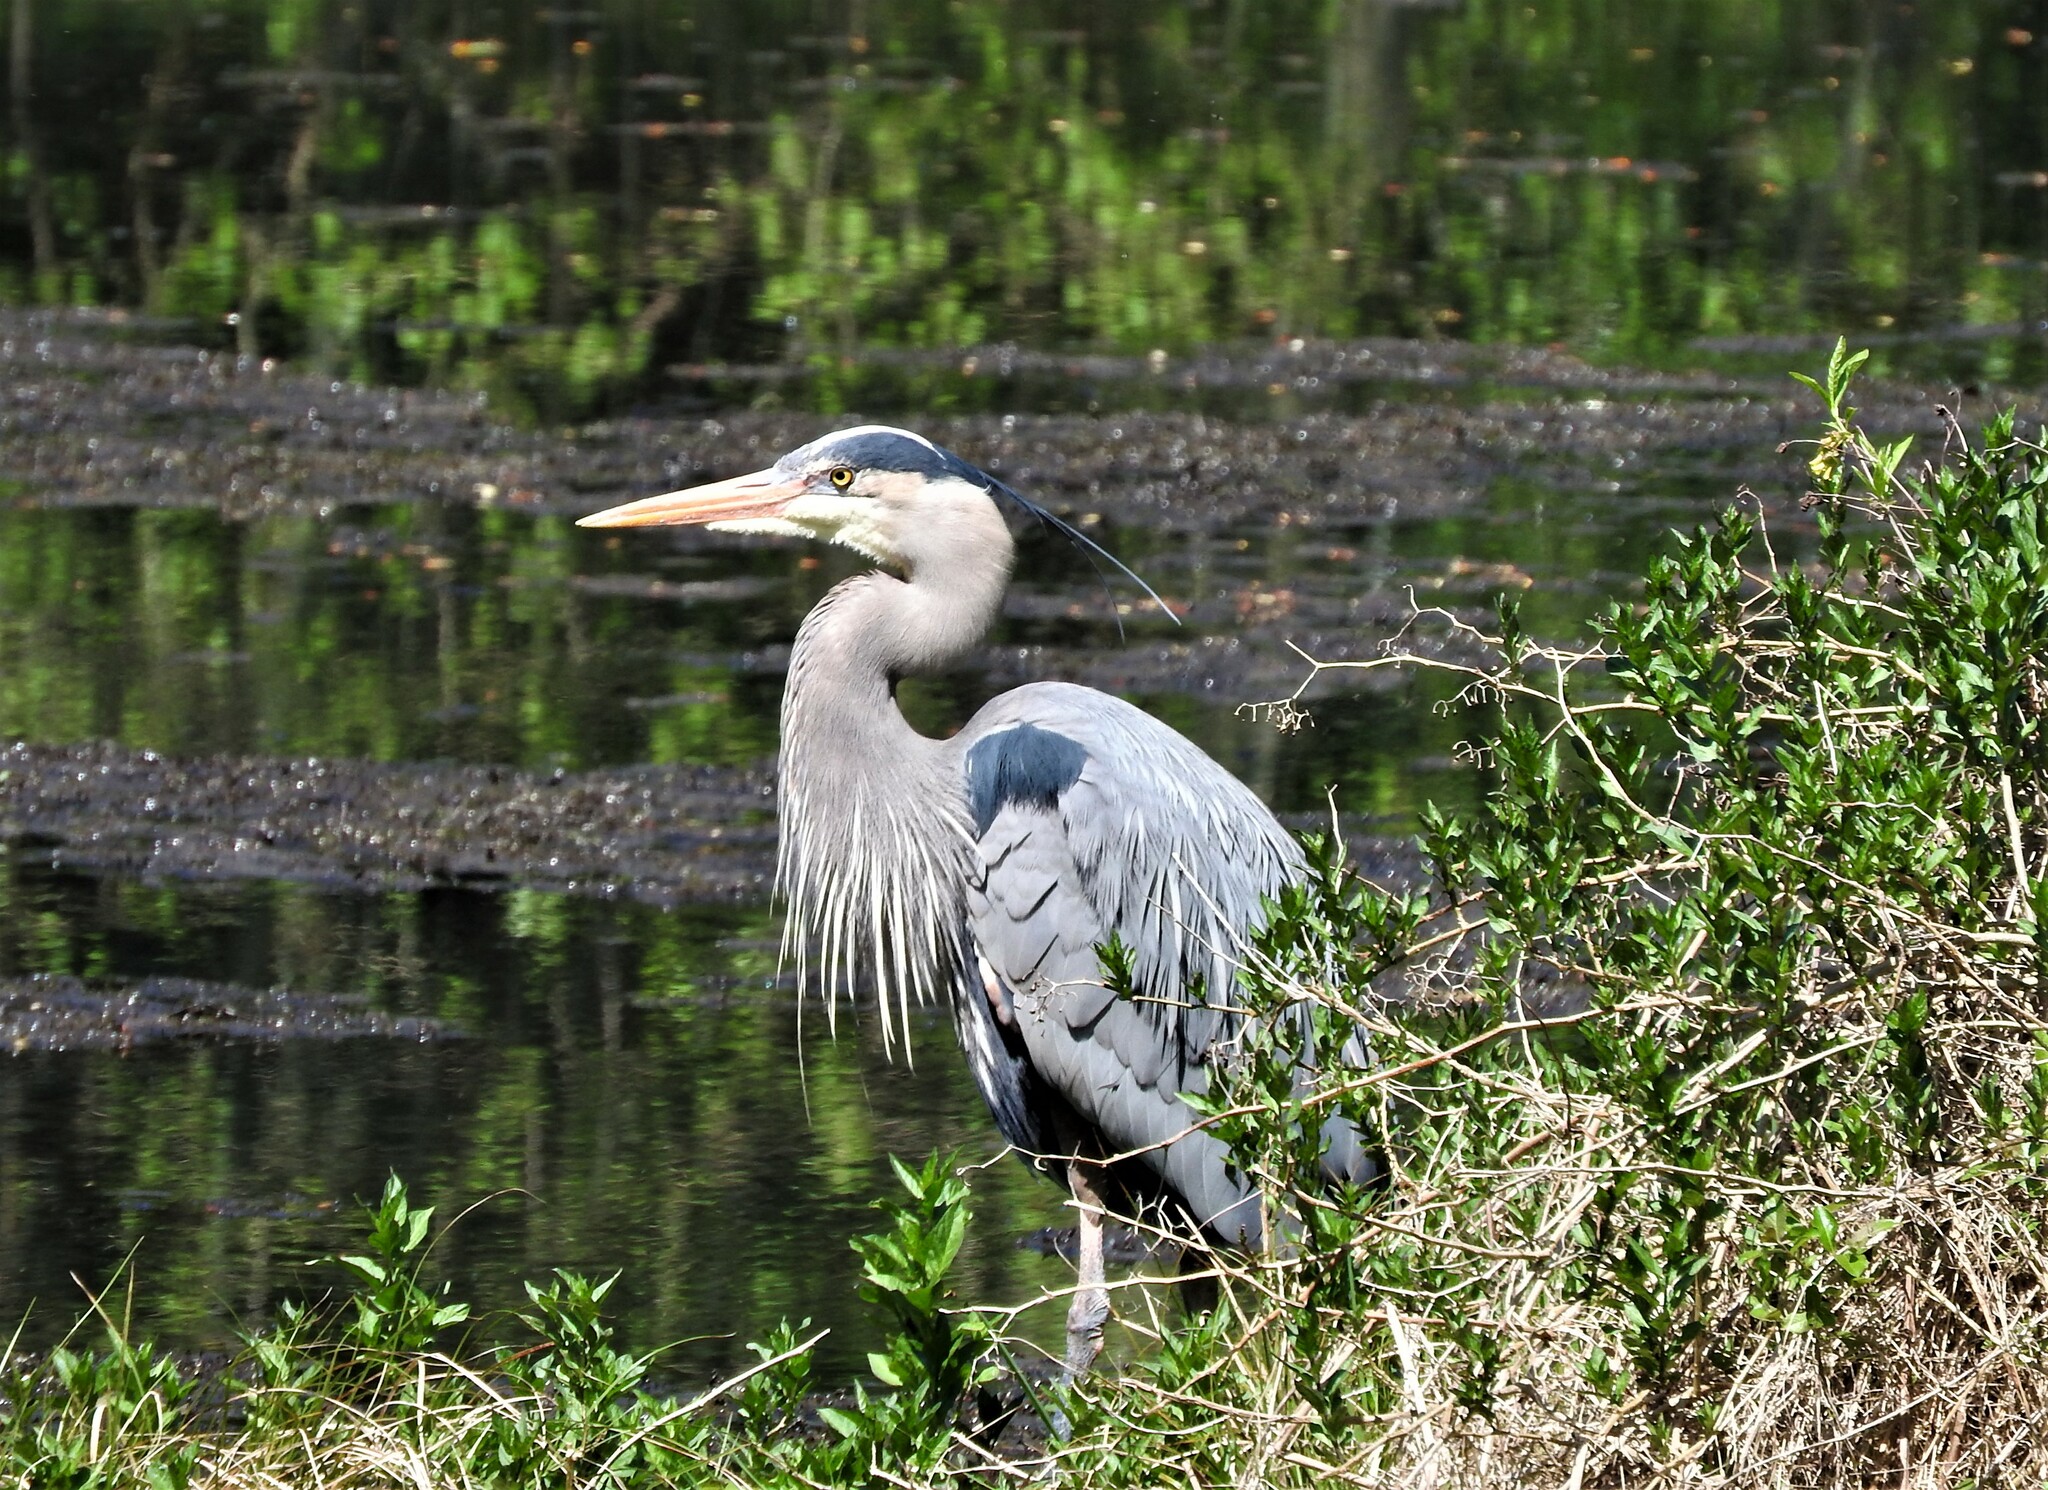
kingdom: Animalia
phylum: Chordata
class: Aves
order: Pelecaniformes
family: Ardeidae
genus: Ardea
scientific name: Ardea herodias
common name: Great blue heron
